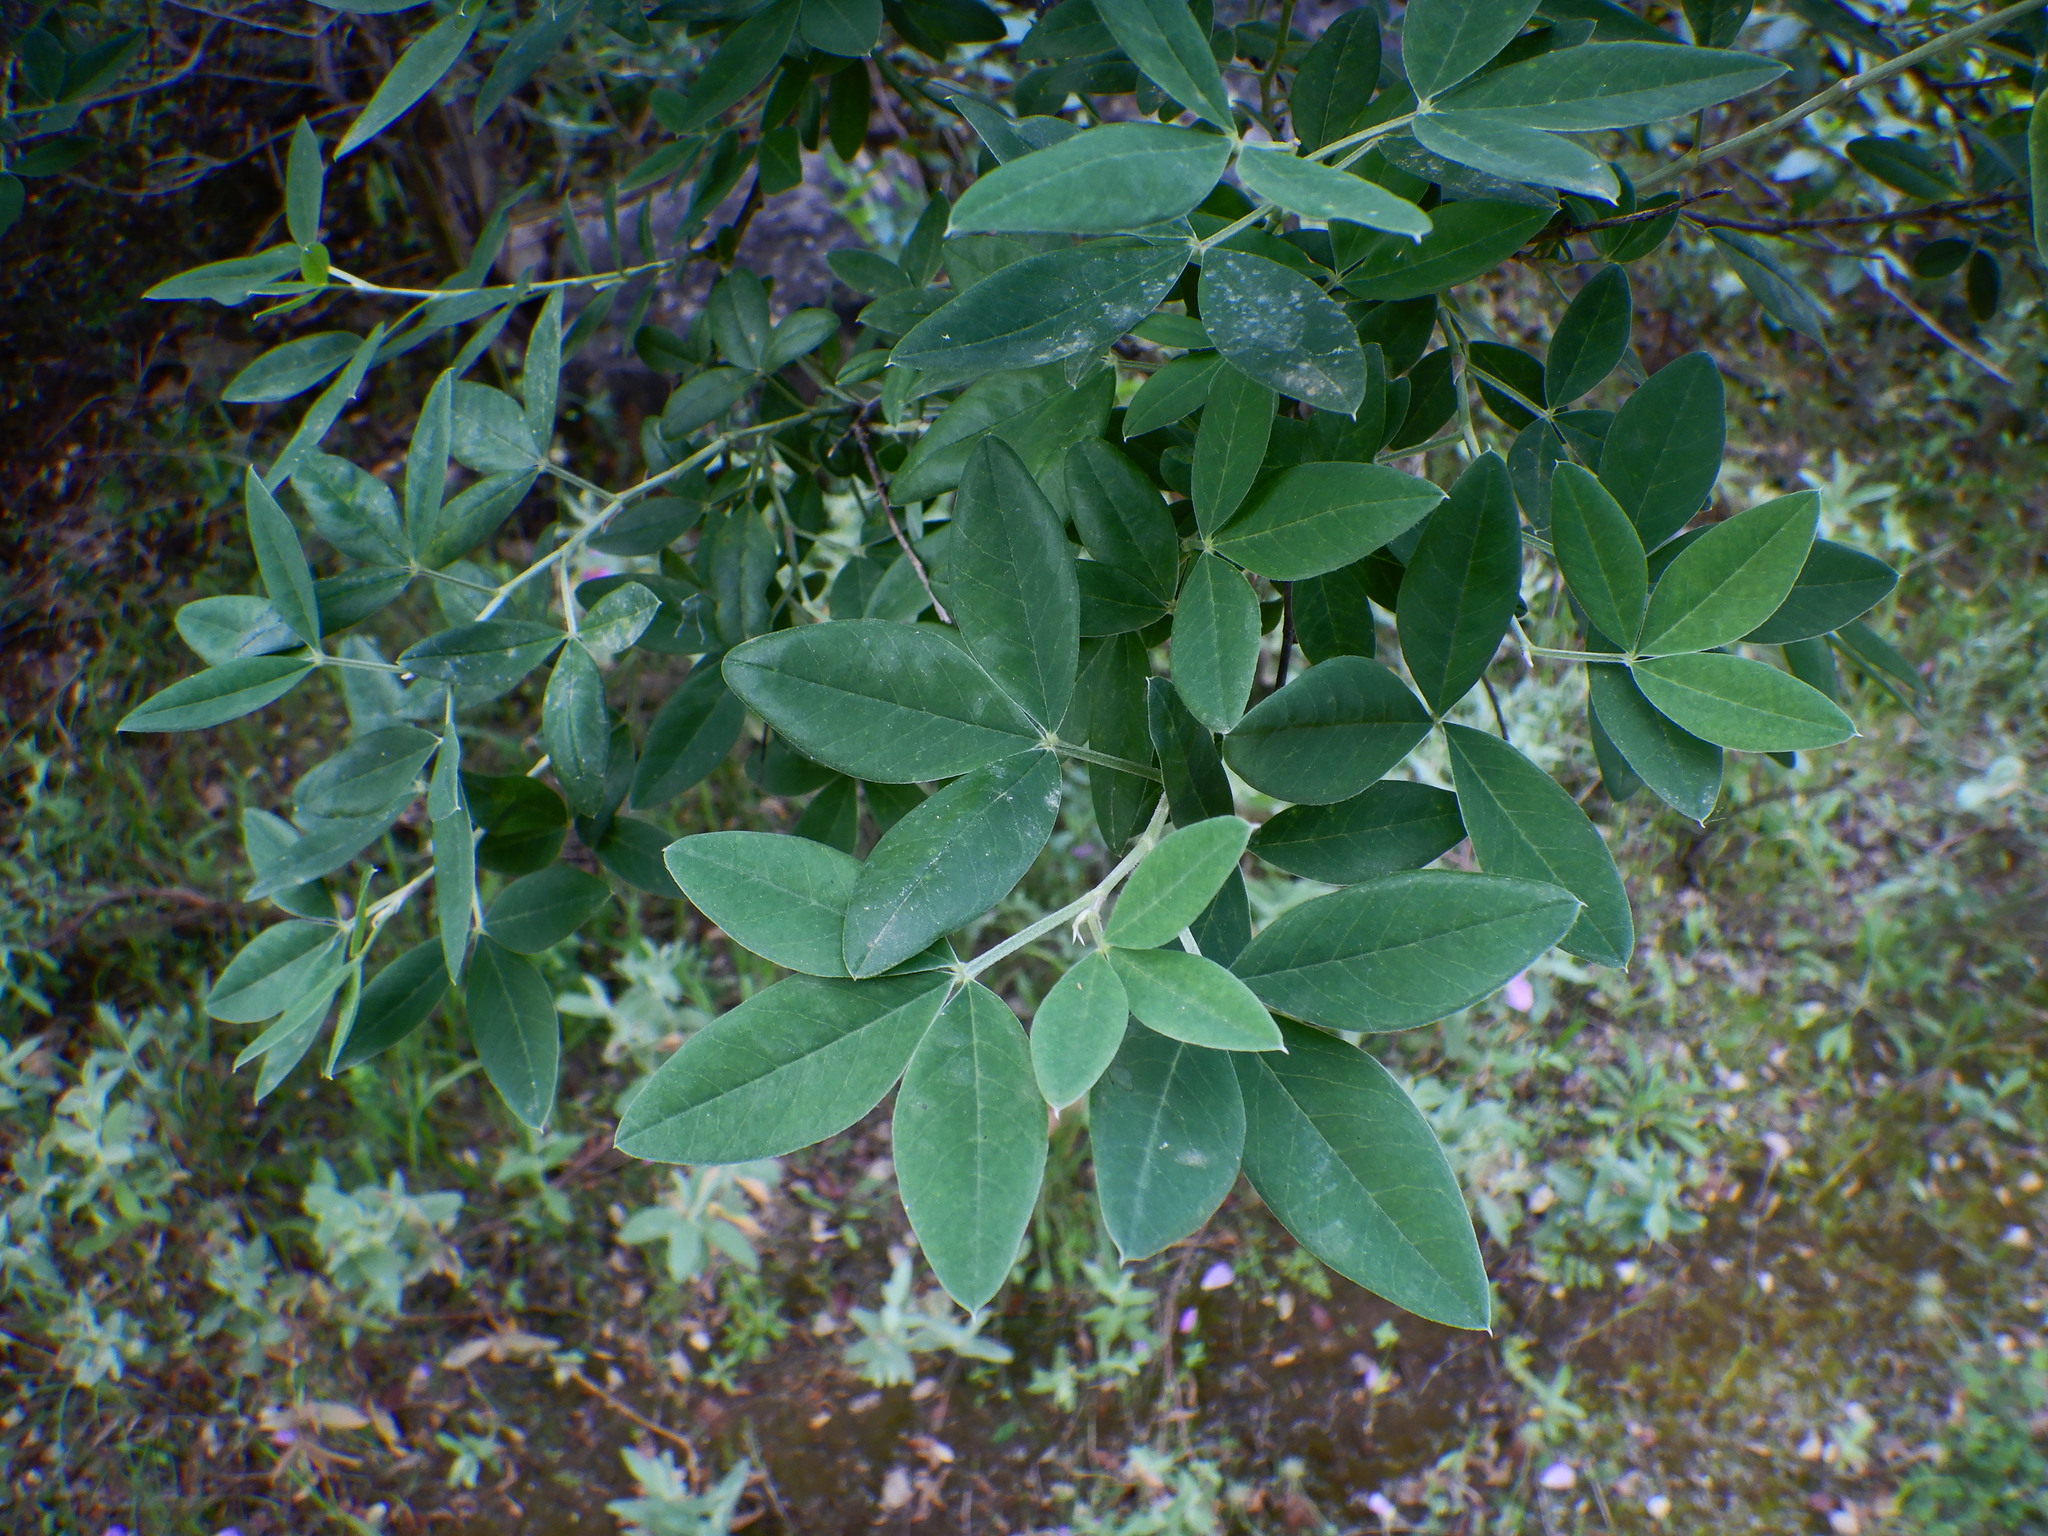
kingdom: Plantae
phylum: Tracheophyta
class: Magnoliopsida
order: Fabales
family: Fabaceae
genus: Anagyris
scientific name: Anagyris foetida
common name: Stinking bean trefoil
